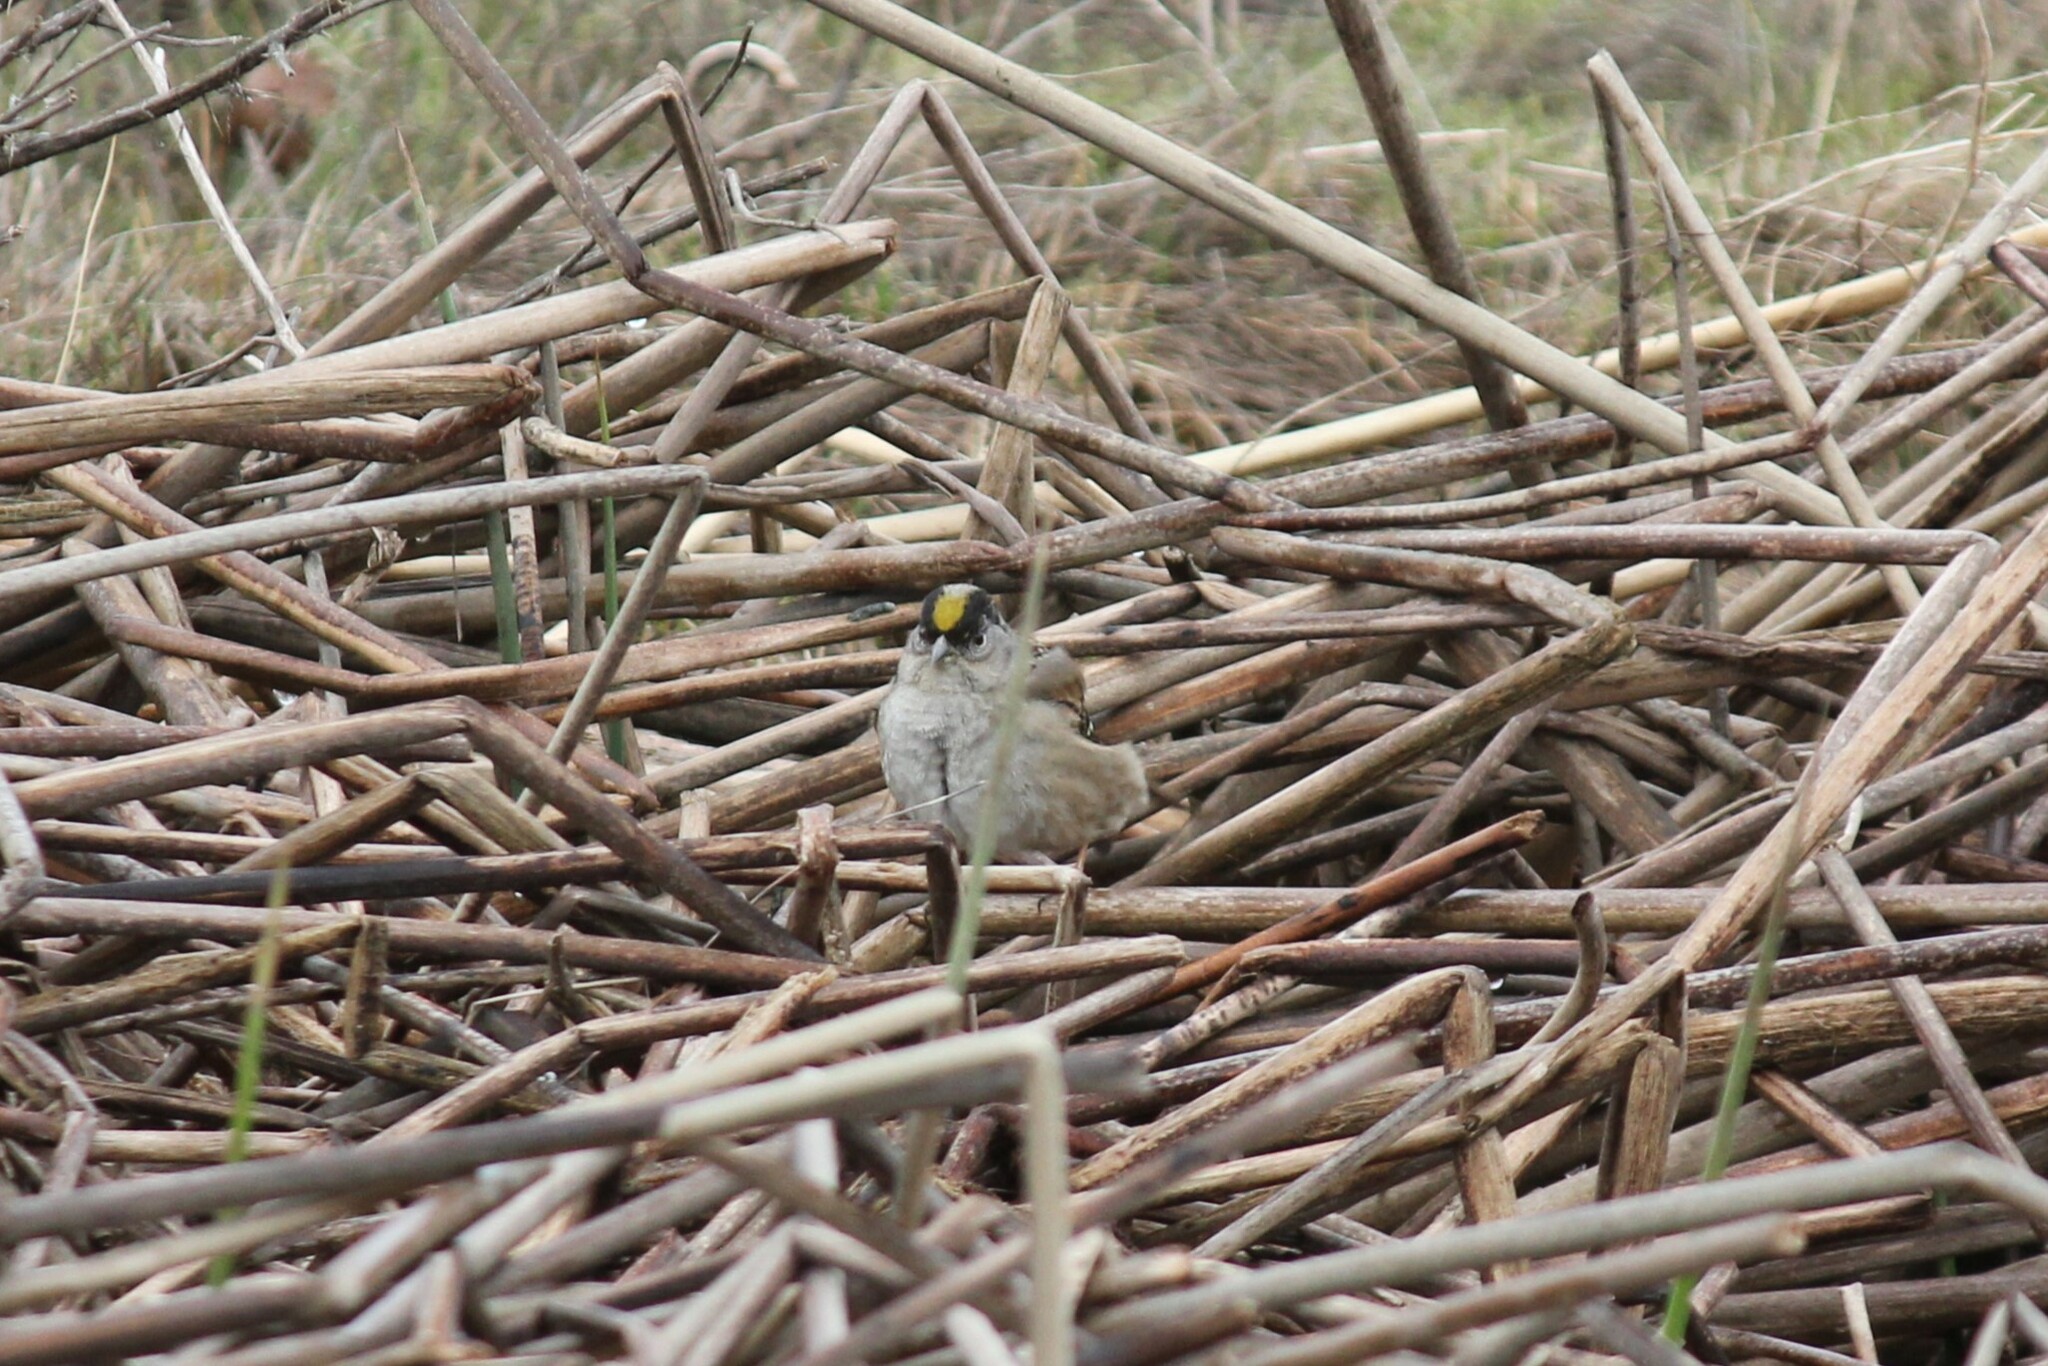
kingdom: Animalia
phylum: Chordata
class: Aves
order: Passeriformes
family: Passerellidae
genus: Zonotrichia
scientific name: Zonotrichia atricapilla
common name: Golden-crowned sparrow
